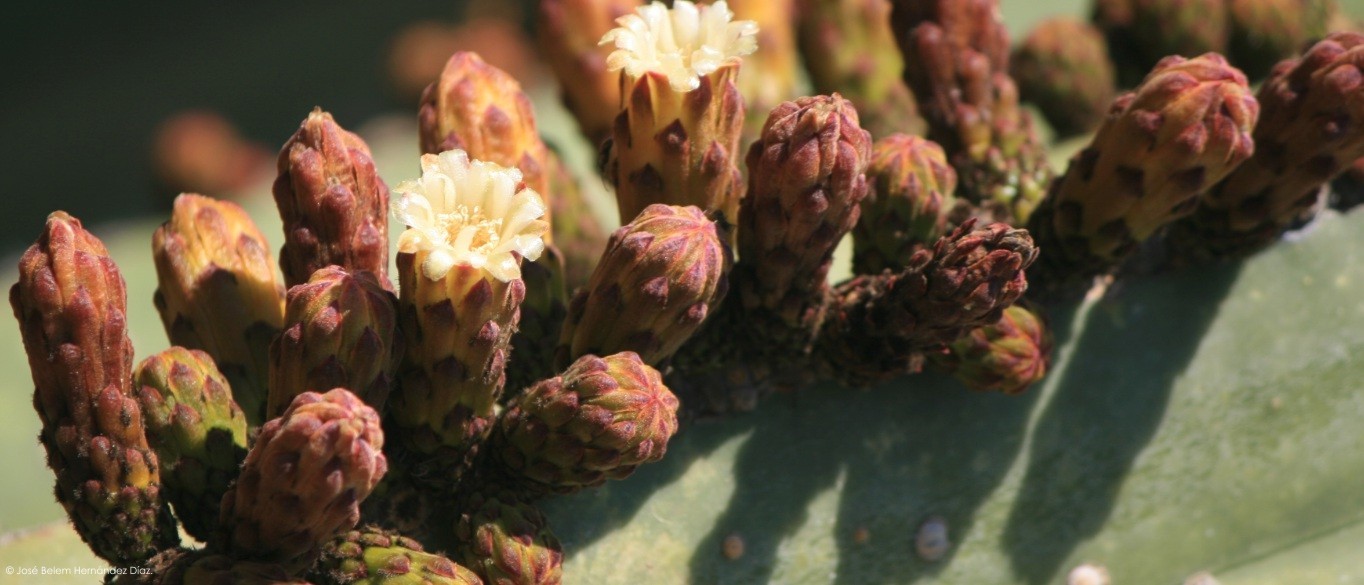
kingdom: Plantae
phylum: Tracheophyta
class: Magnoliopsida
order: Caryophyllales
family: Cactaceae
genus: Marginatocereus
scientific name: Marginatocereus marginatus
